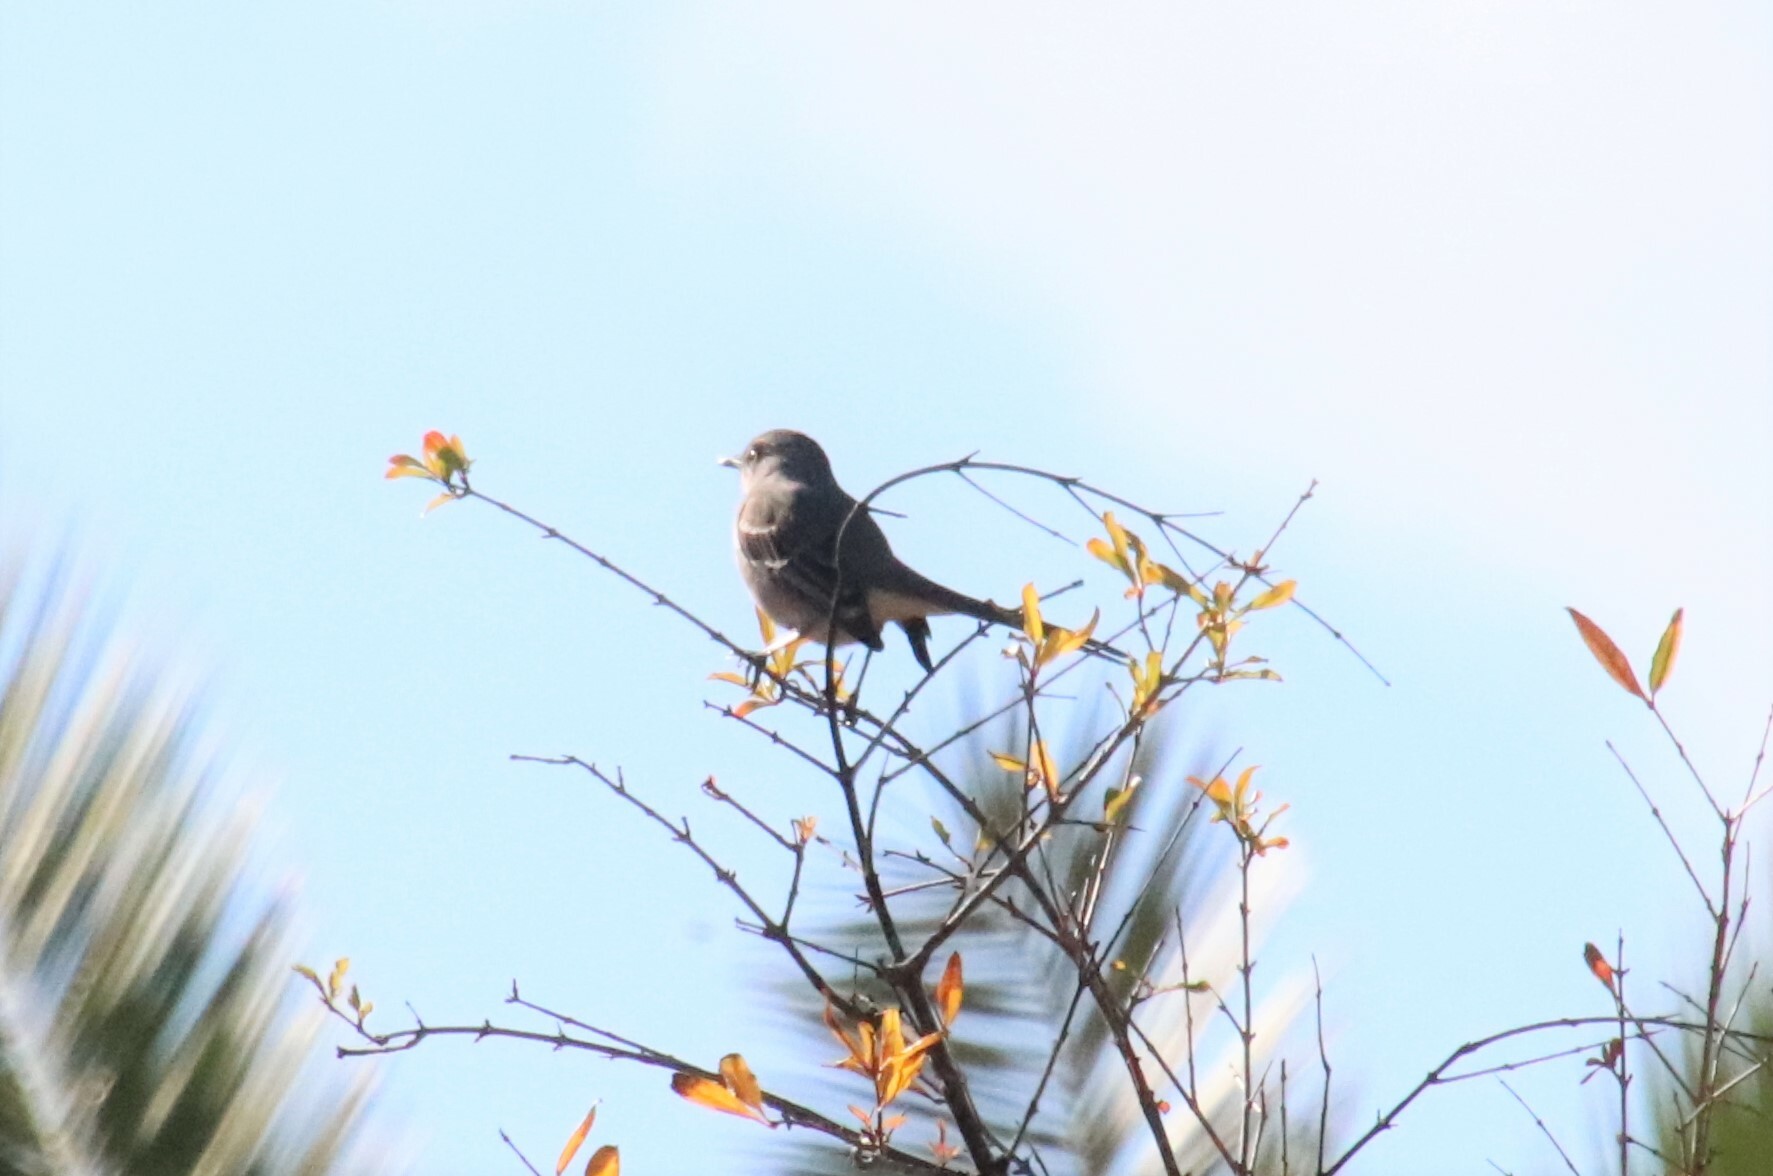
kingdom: Animalia
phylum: Chordata
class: Aves
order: Passeriformes
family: Mimidae
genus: Mimus
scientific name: Mimus polyglottos
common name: Northern mockingbird
